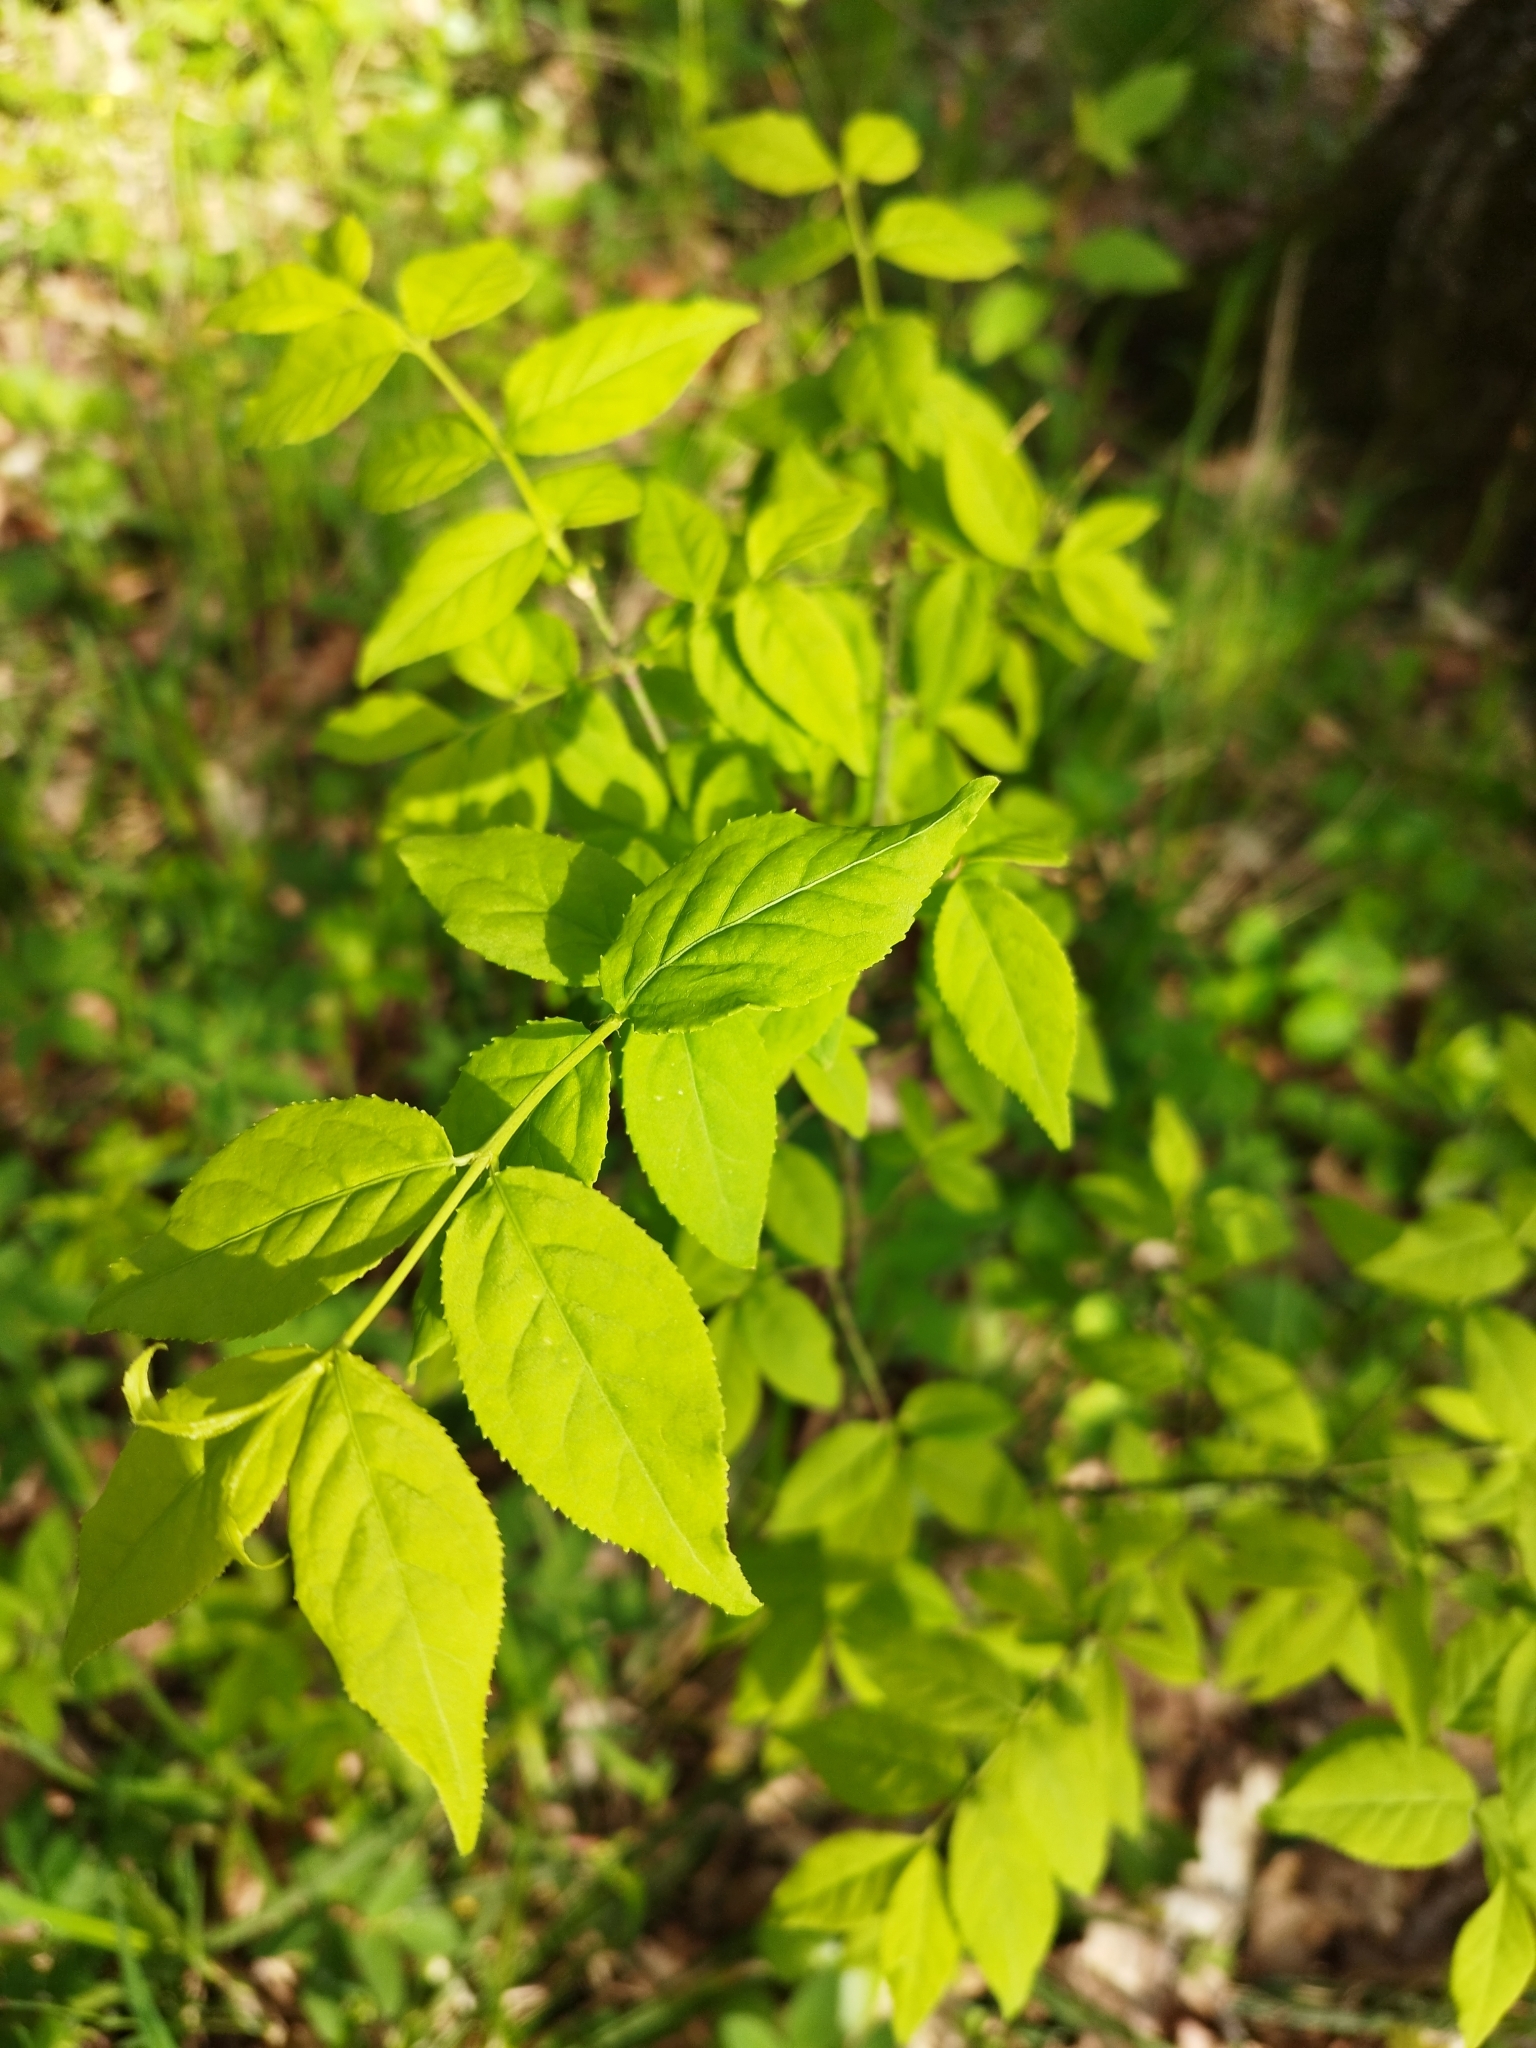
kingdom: Plantae
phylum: Tracheophyta
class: Magnoliopsida
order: Celastrales
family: Celastraceae
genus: Euonymus
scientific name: Euonymus verrucosus
